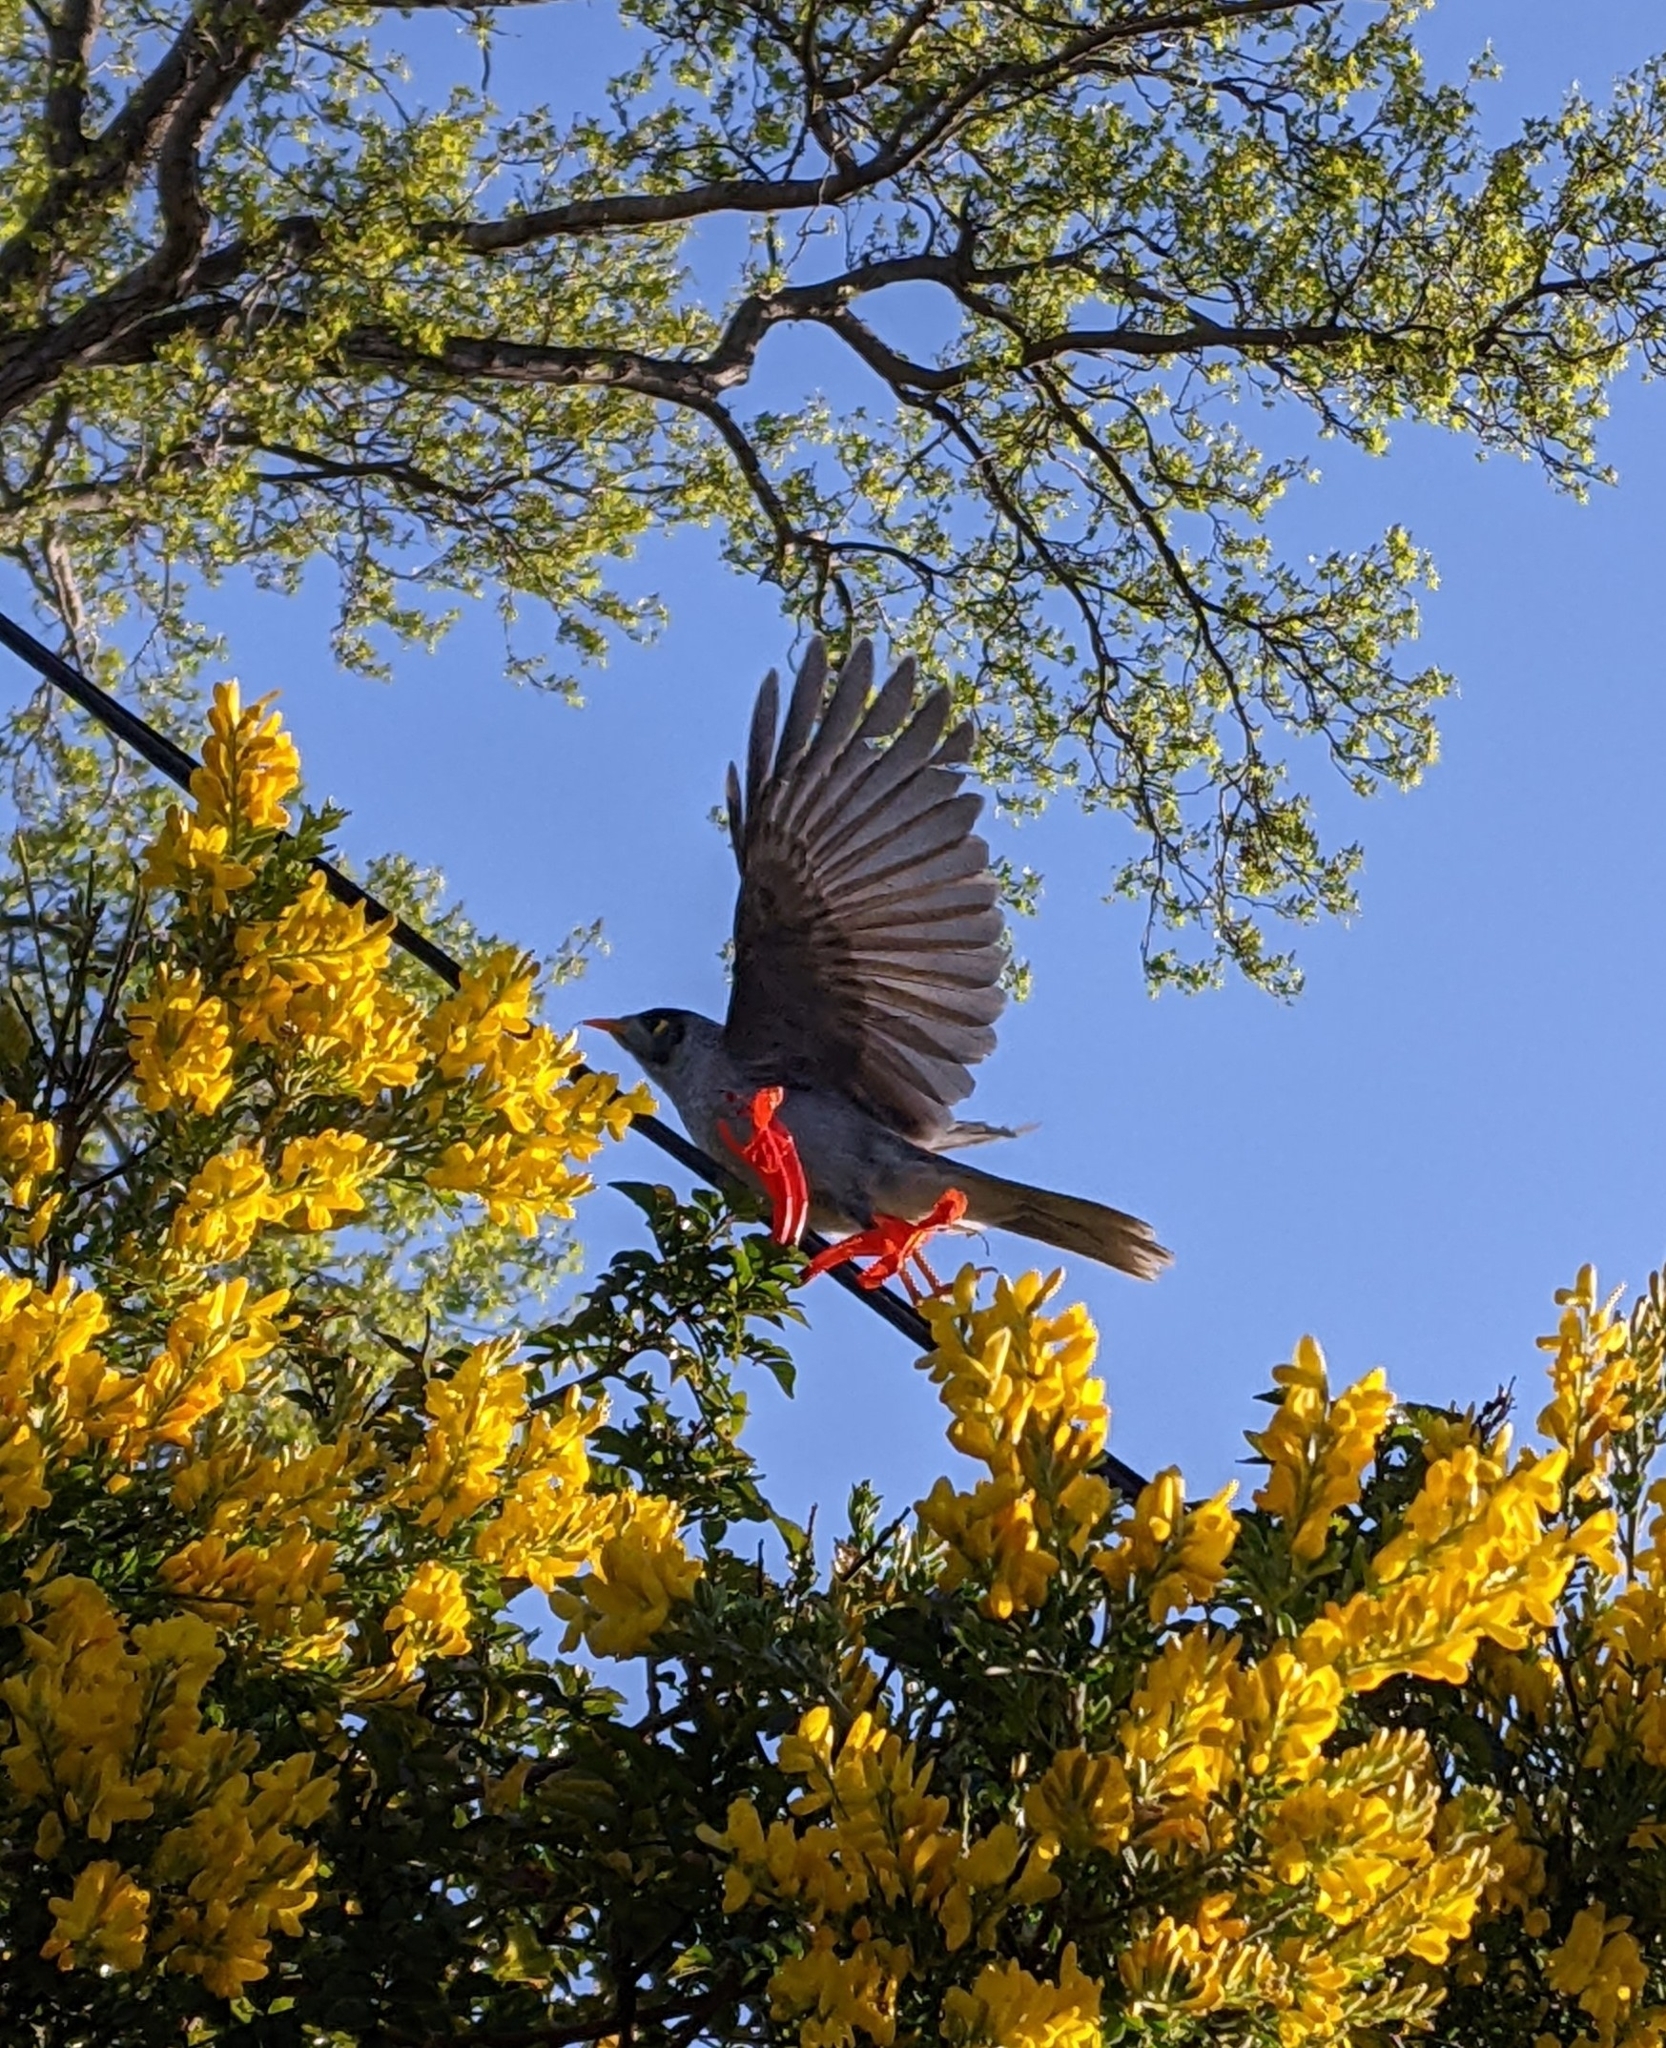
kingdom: Animalia
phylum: Chordata
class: Aves
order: Passeriformes
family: Meliphagidae
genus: Manorina
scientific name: Manorina melanocephala
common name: Noisy miner
